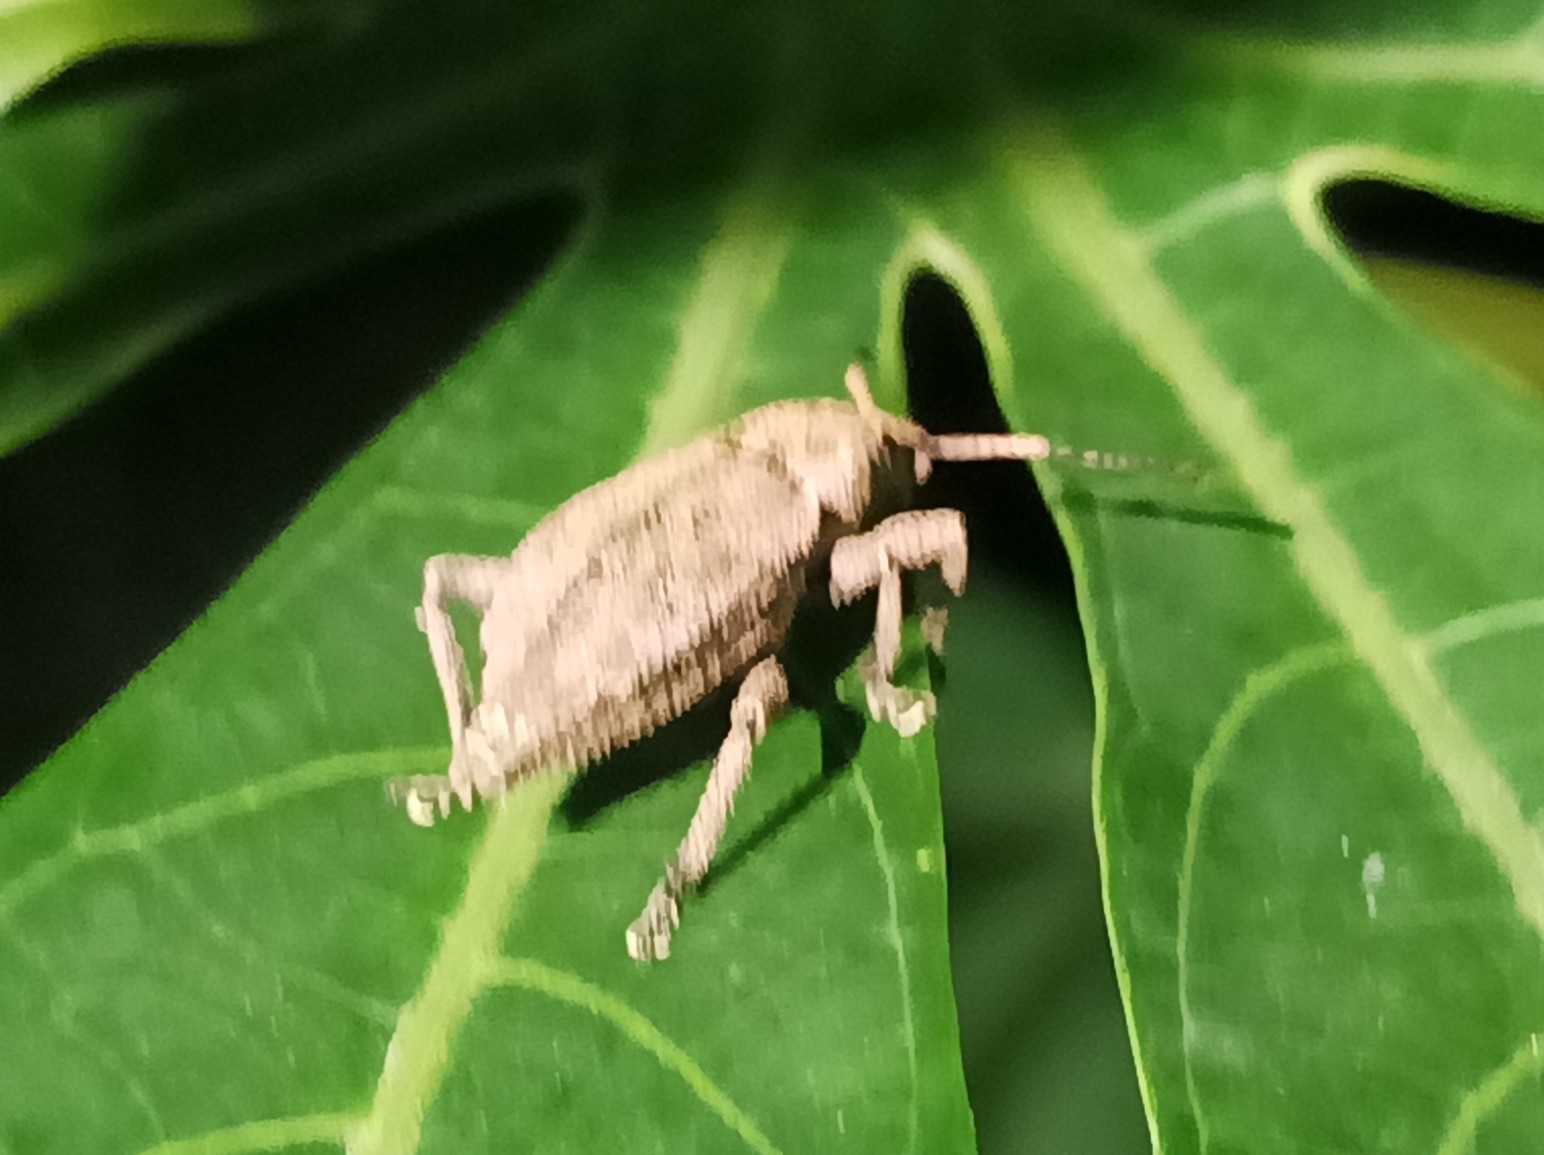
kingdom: Animalia
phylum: Arthropoda
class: Insecta
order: Coleoptera
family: Curculionidae
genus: Elytrurus
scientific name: Elytrurus caudatus
